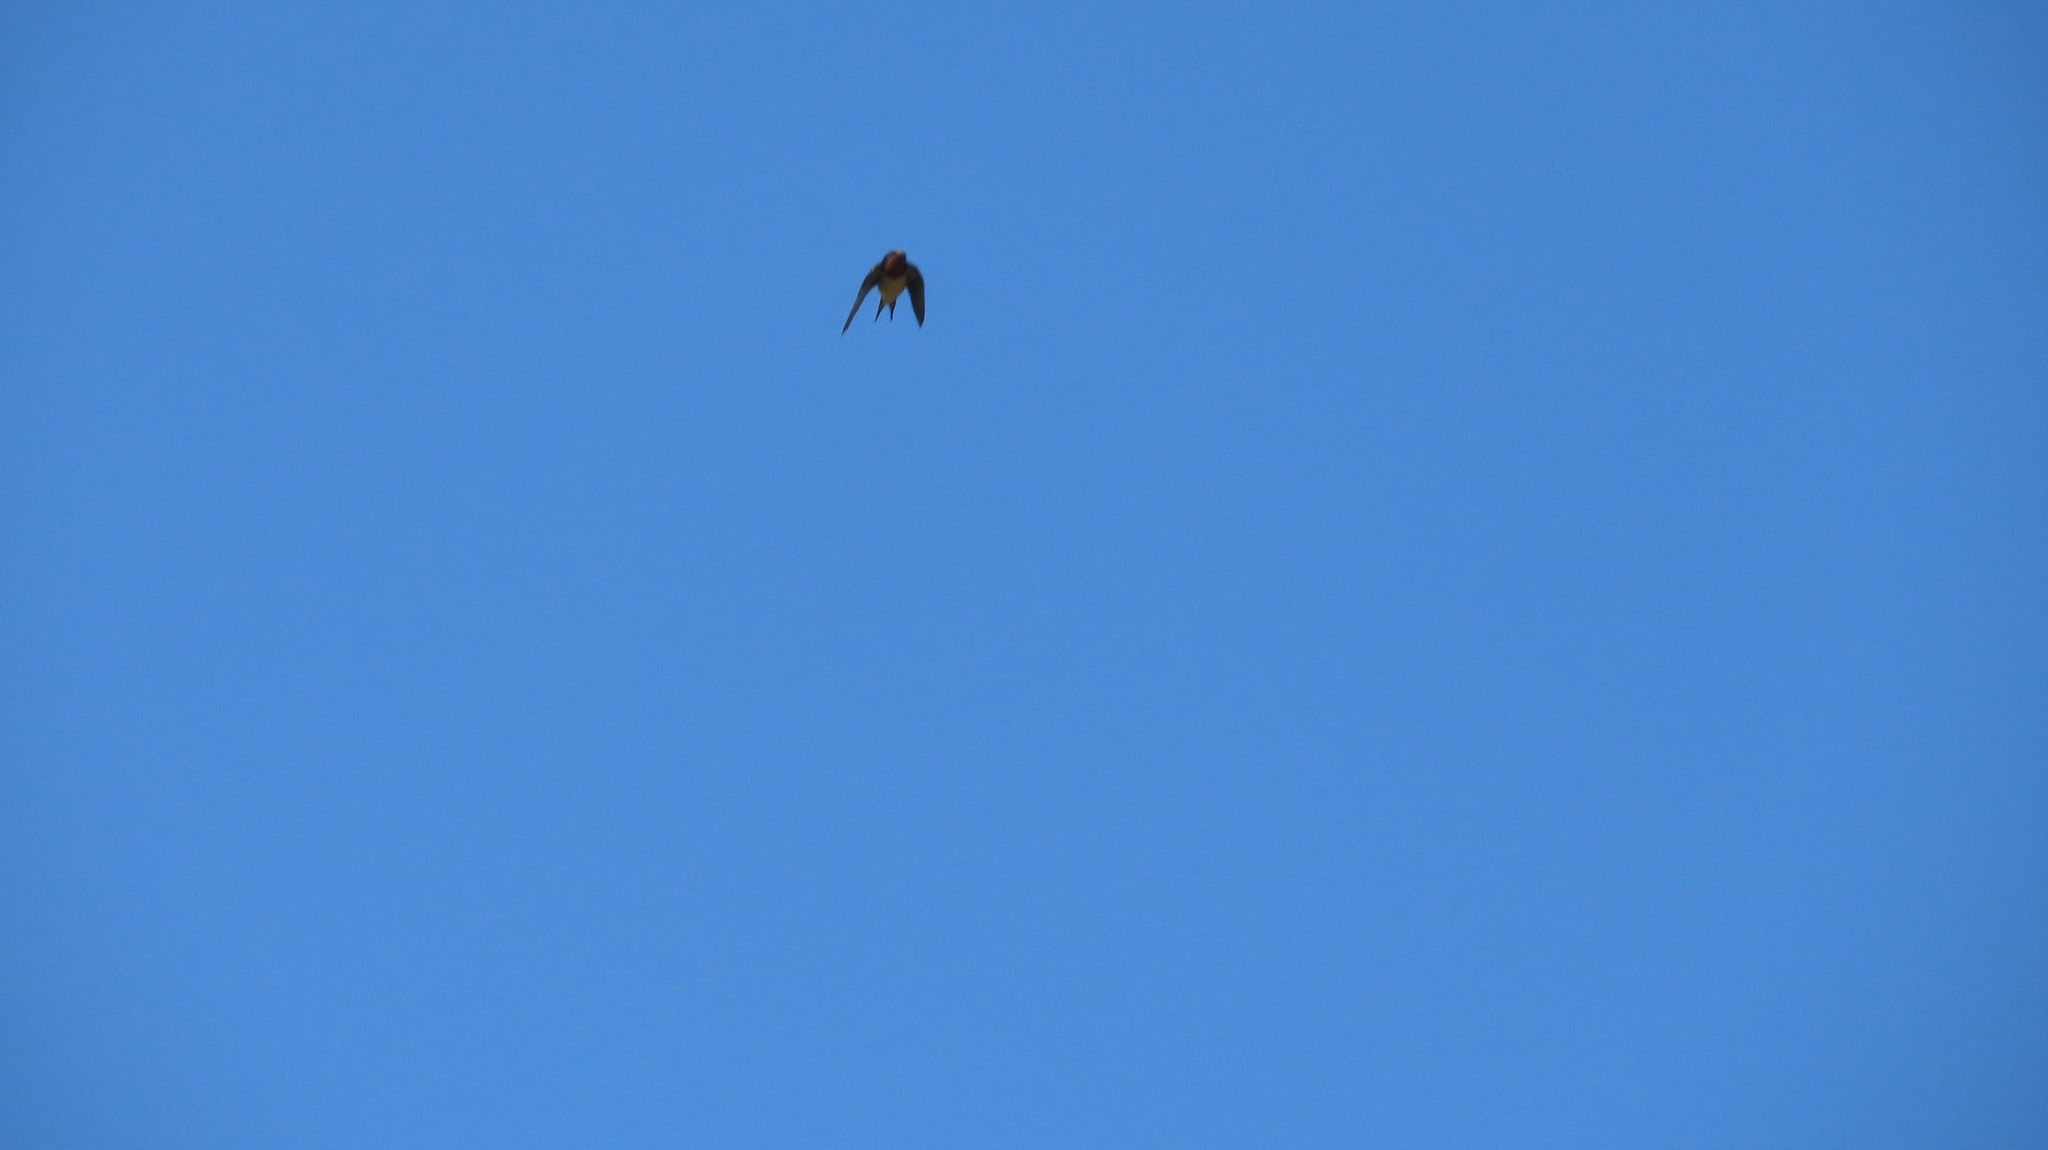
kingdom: Animalia
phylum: Chordata
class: Aves
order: Passeriformes
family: Hirundinidae
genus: Hirundo
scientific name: Hirundo rustica
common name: Barn swallow
